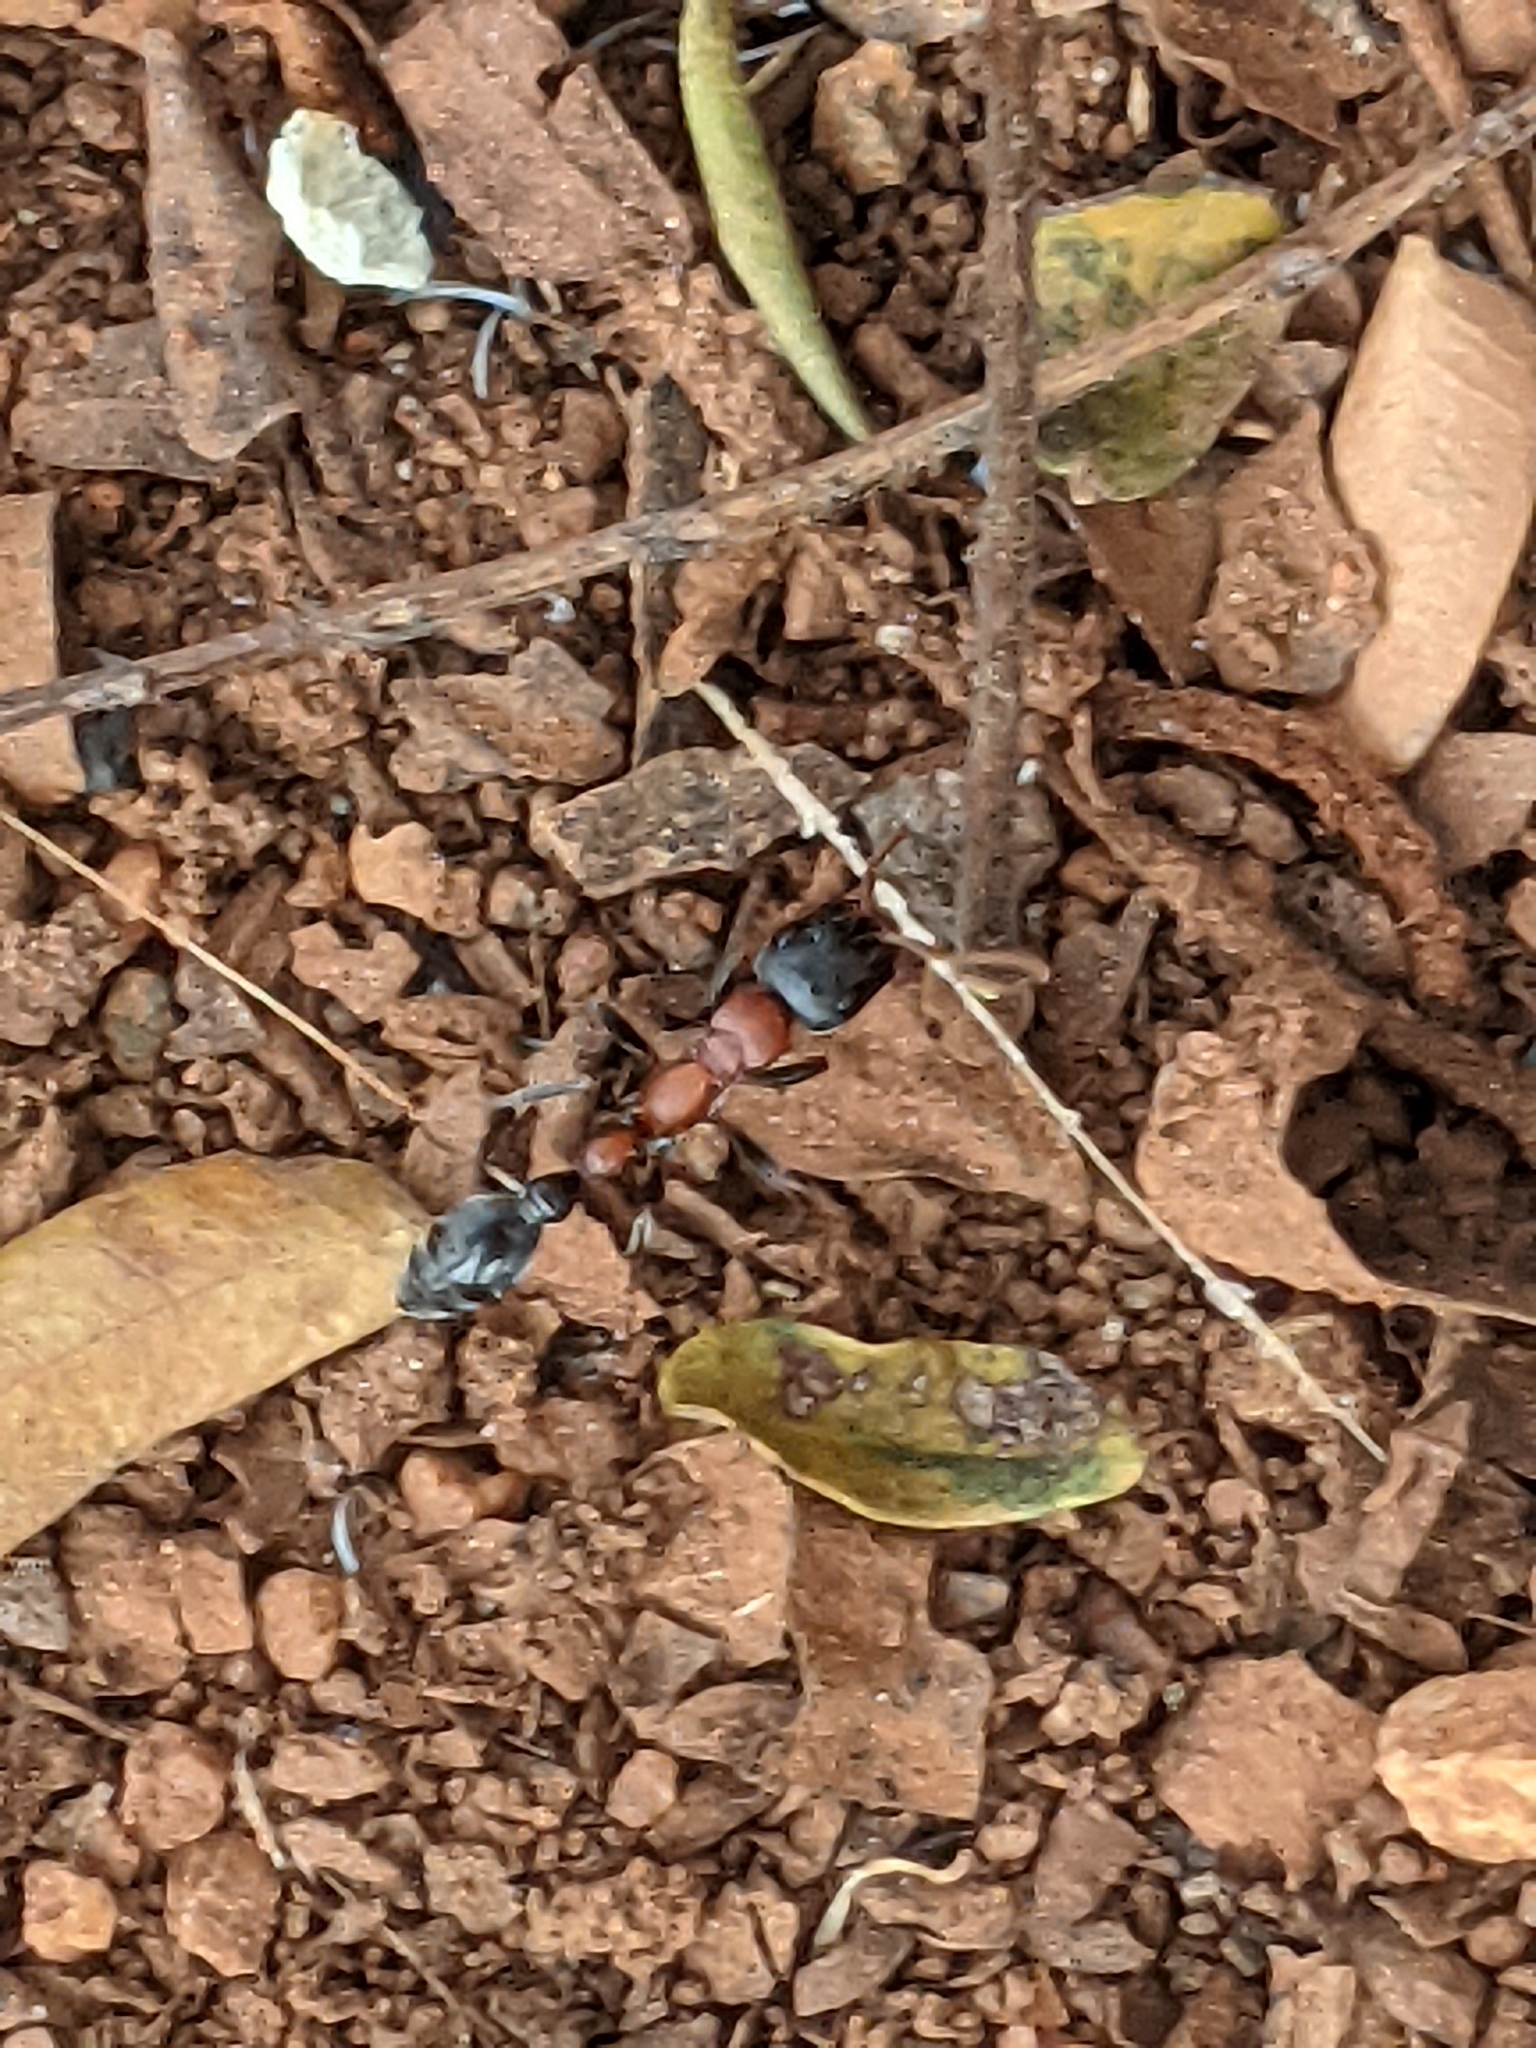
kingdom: Animalia
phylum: Arthropoda
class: Insecta
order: Hymenoptera
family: Formicidae
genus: Tetraponera
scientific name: Tetraponera rufonigra
